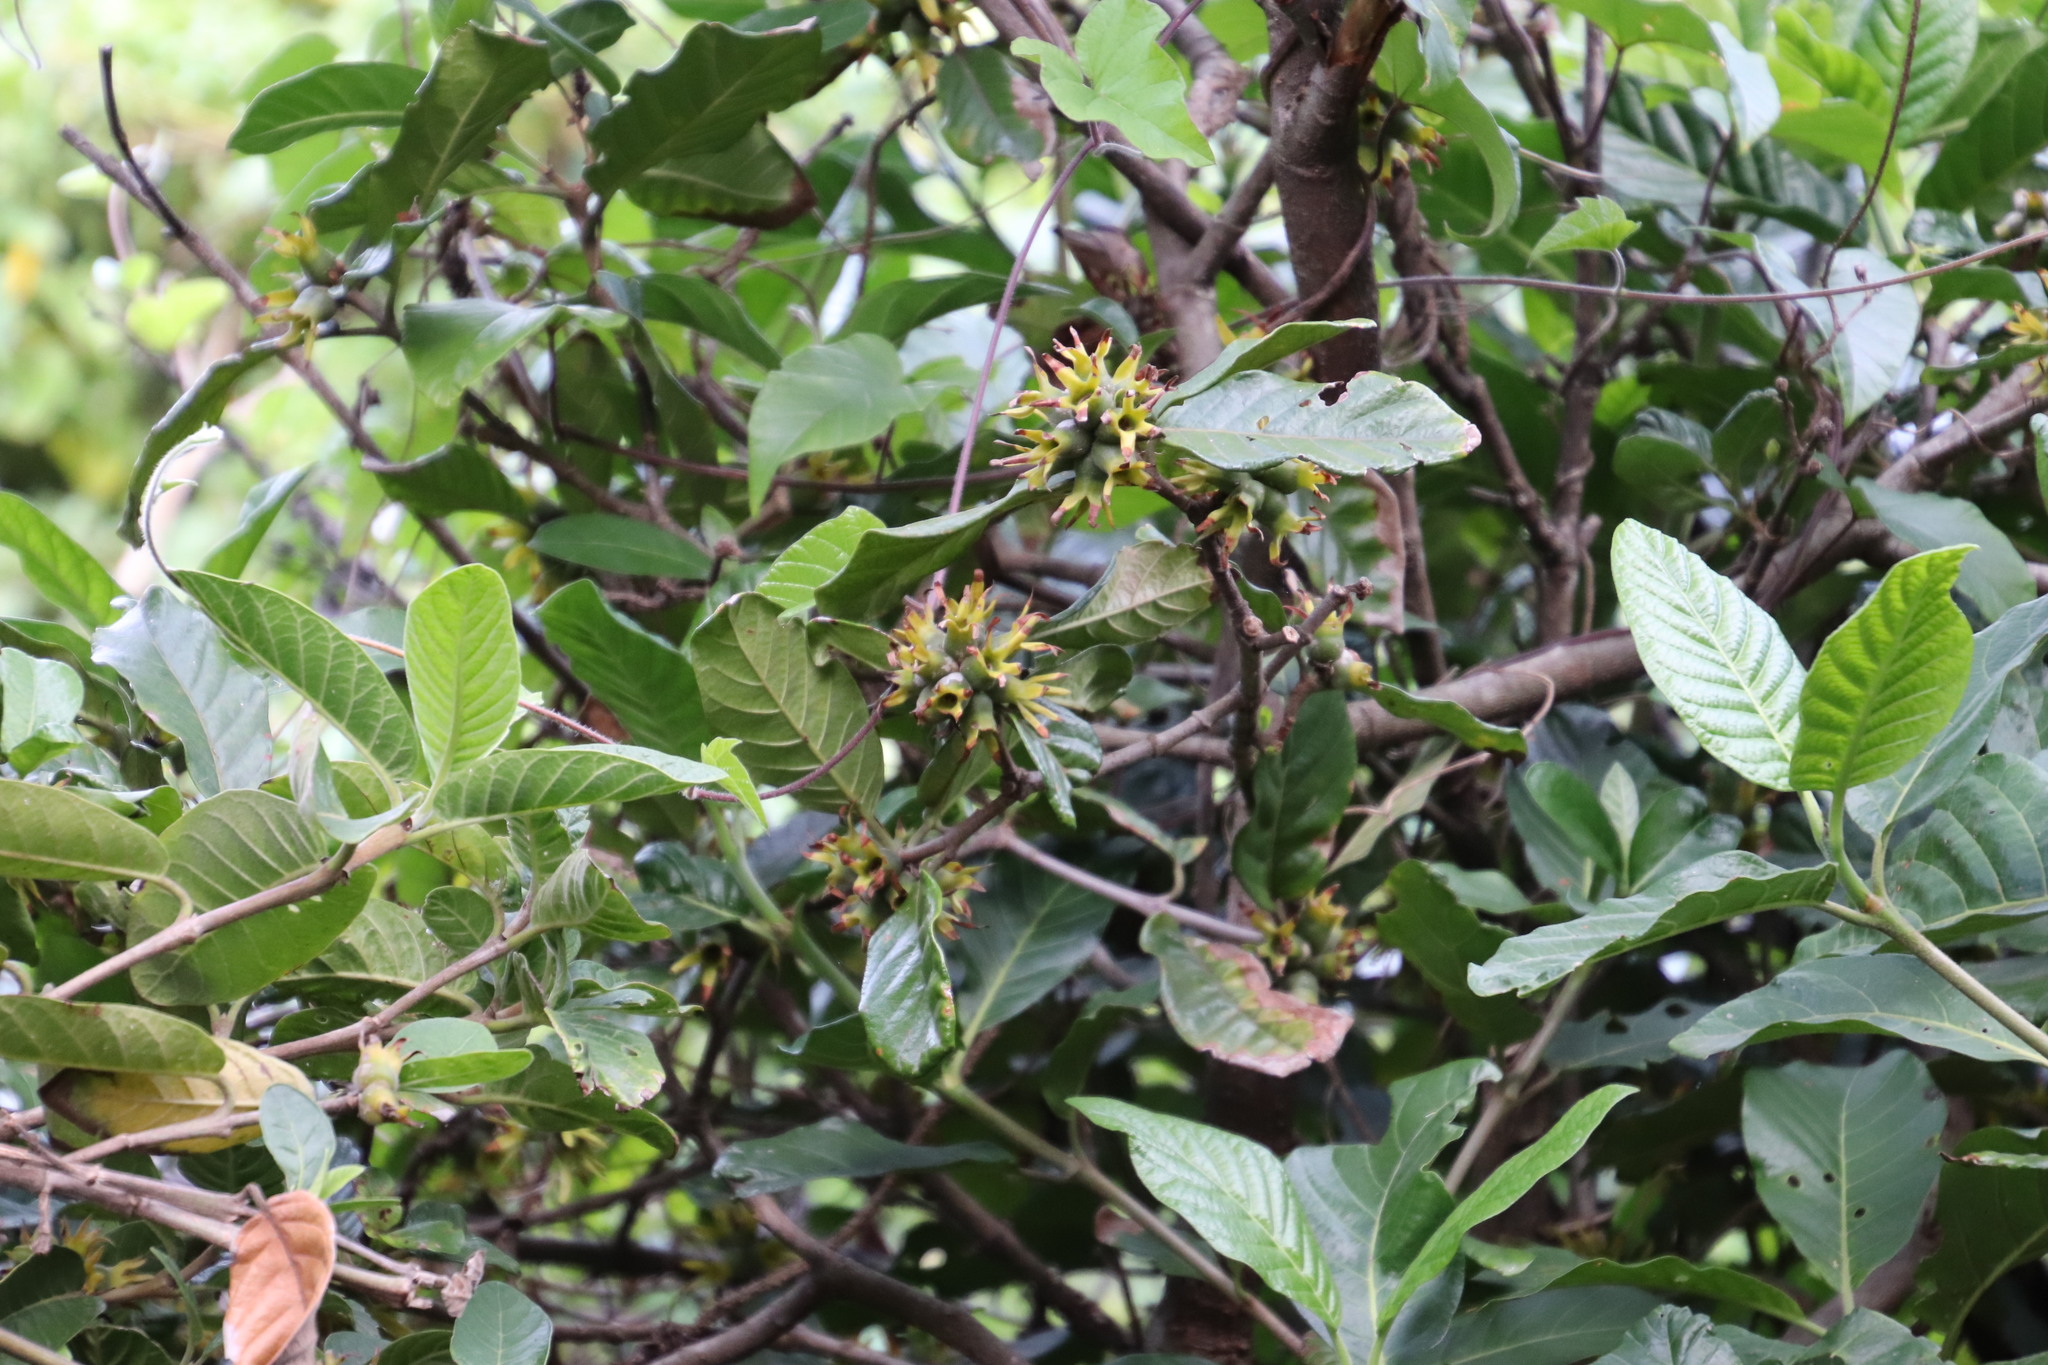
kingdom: Plantae
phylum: Tracheophyta
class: Magnoliopsida
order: Gentianales
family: Rubiaceae
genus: Burchellia
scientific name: Burchellia bubalina
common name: Wild pomegranate
